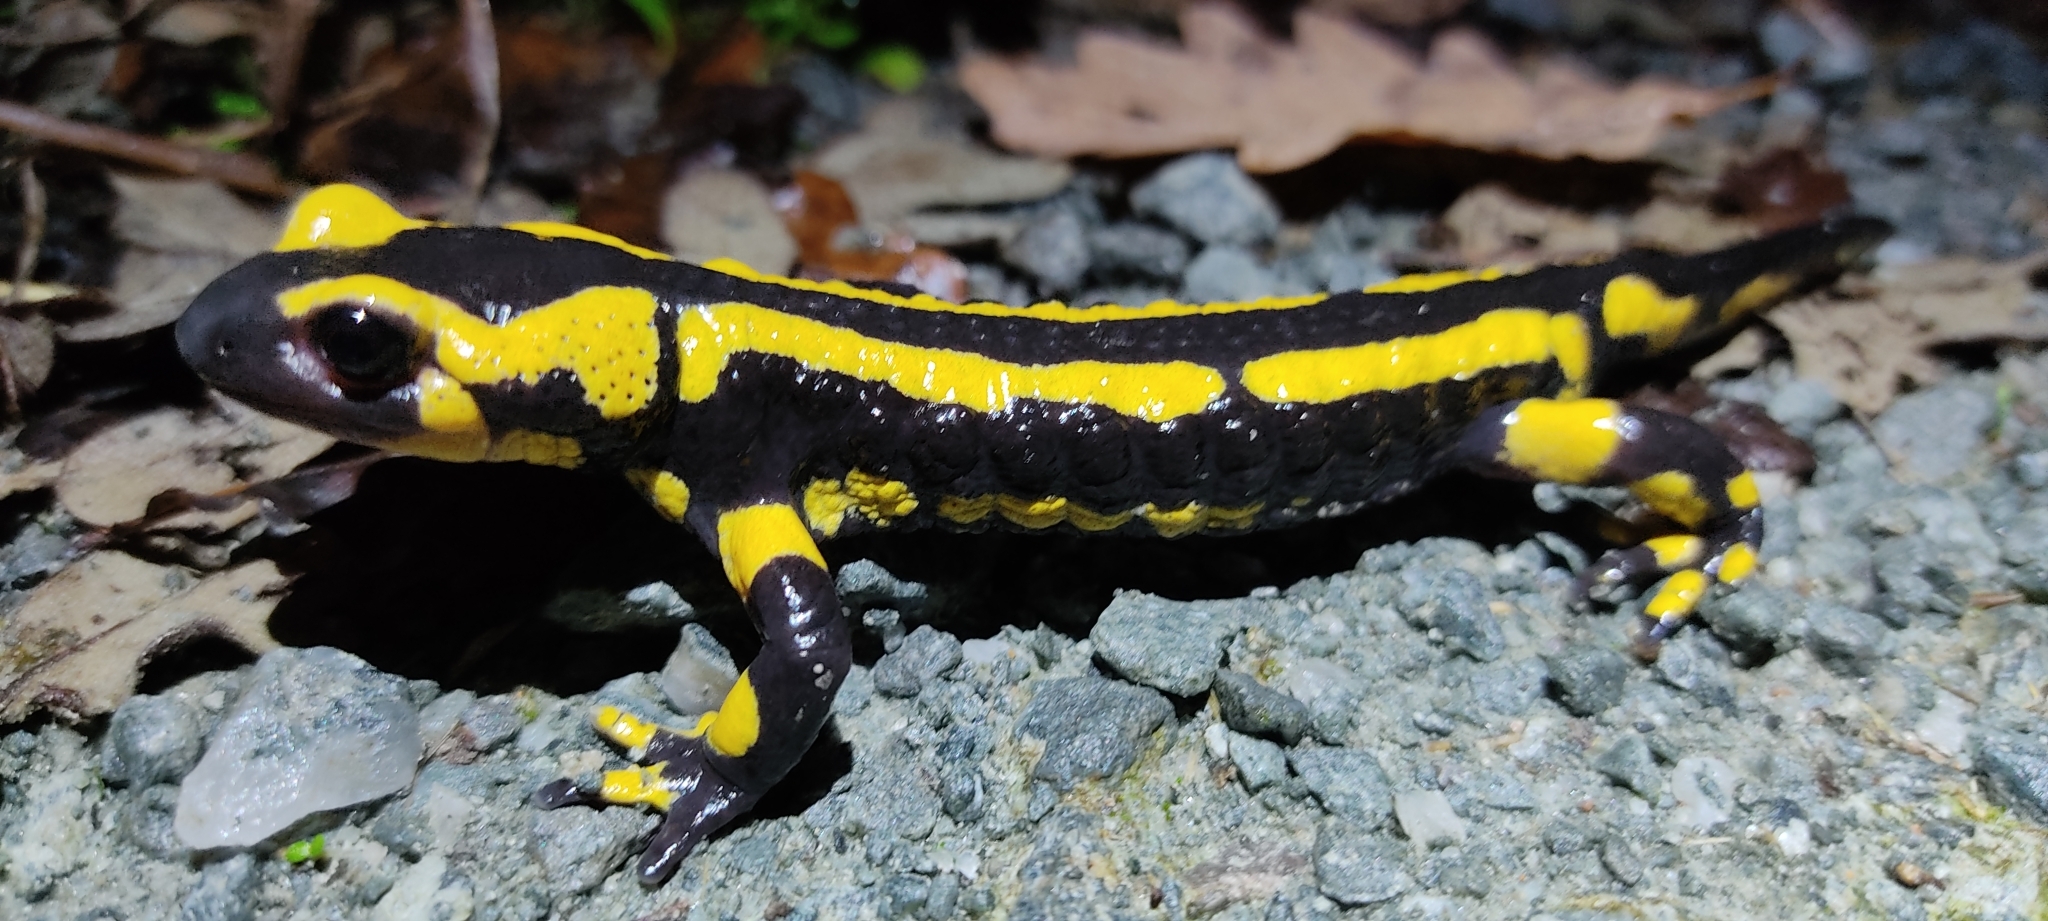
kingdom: Animalia
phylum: Chordata
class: Amphibia
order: Caudata
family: Salamandridae
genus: Salamandra
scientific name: Salamandra salamandra
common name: Fire salamander
